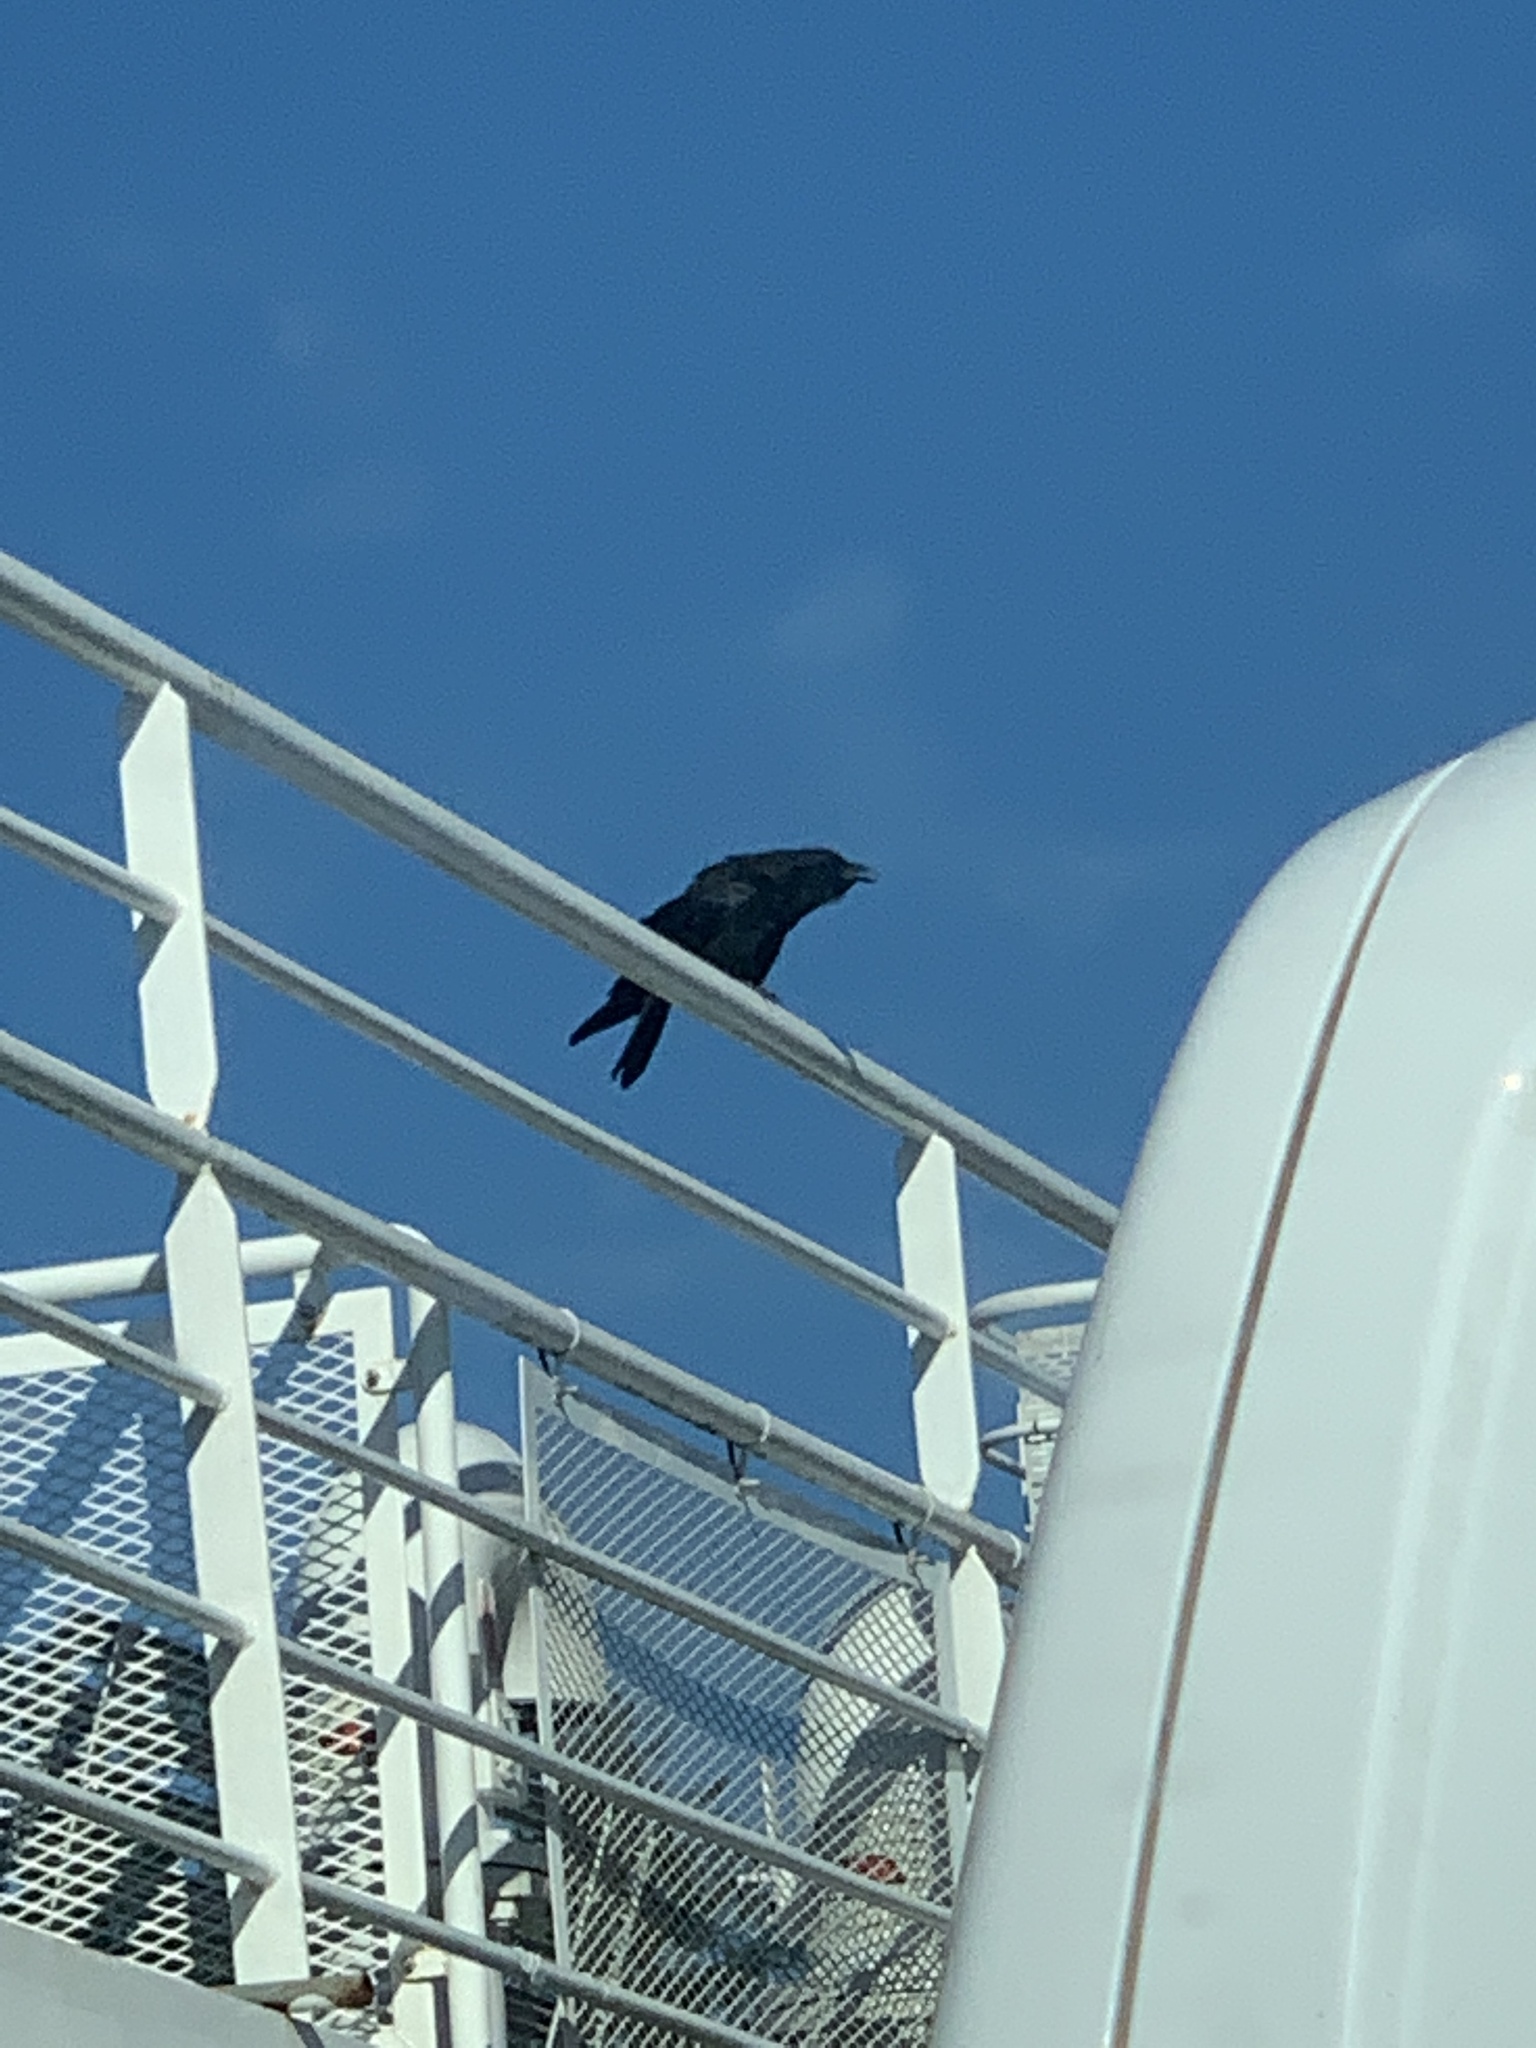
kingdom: Animalia
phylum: Chordata
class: Aves
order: Passeriformes
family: Corvidae
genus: Corvus
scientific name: Corvus brachyrhynchos
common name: American crow
